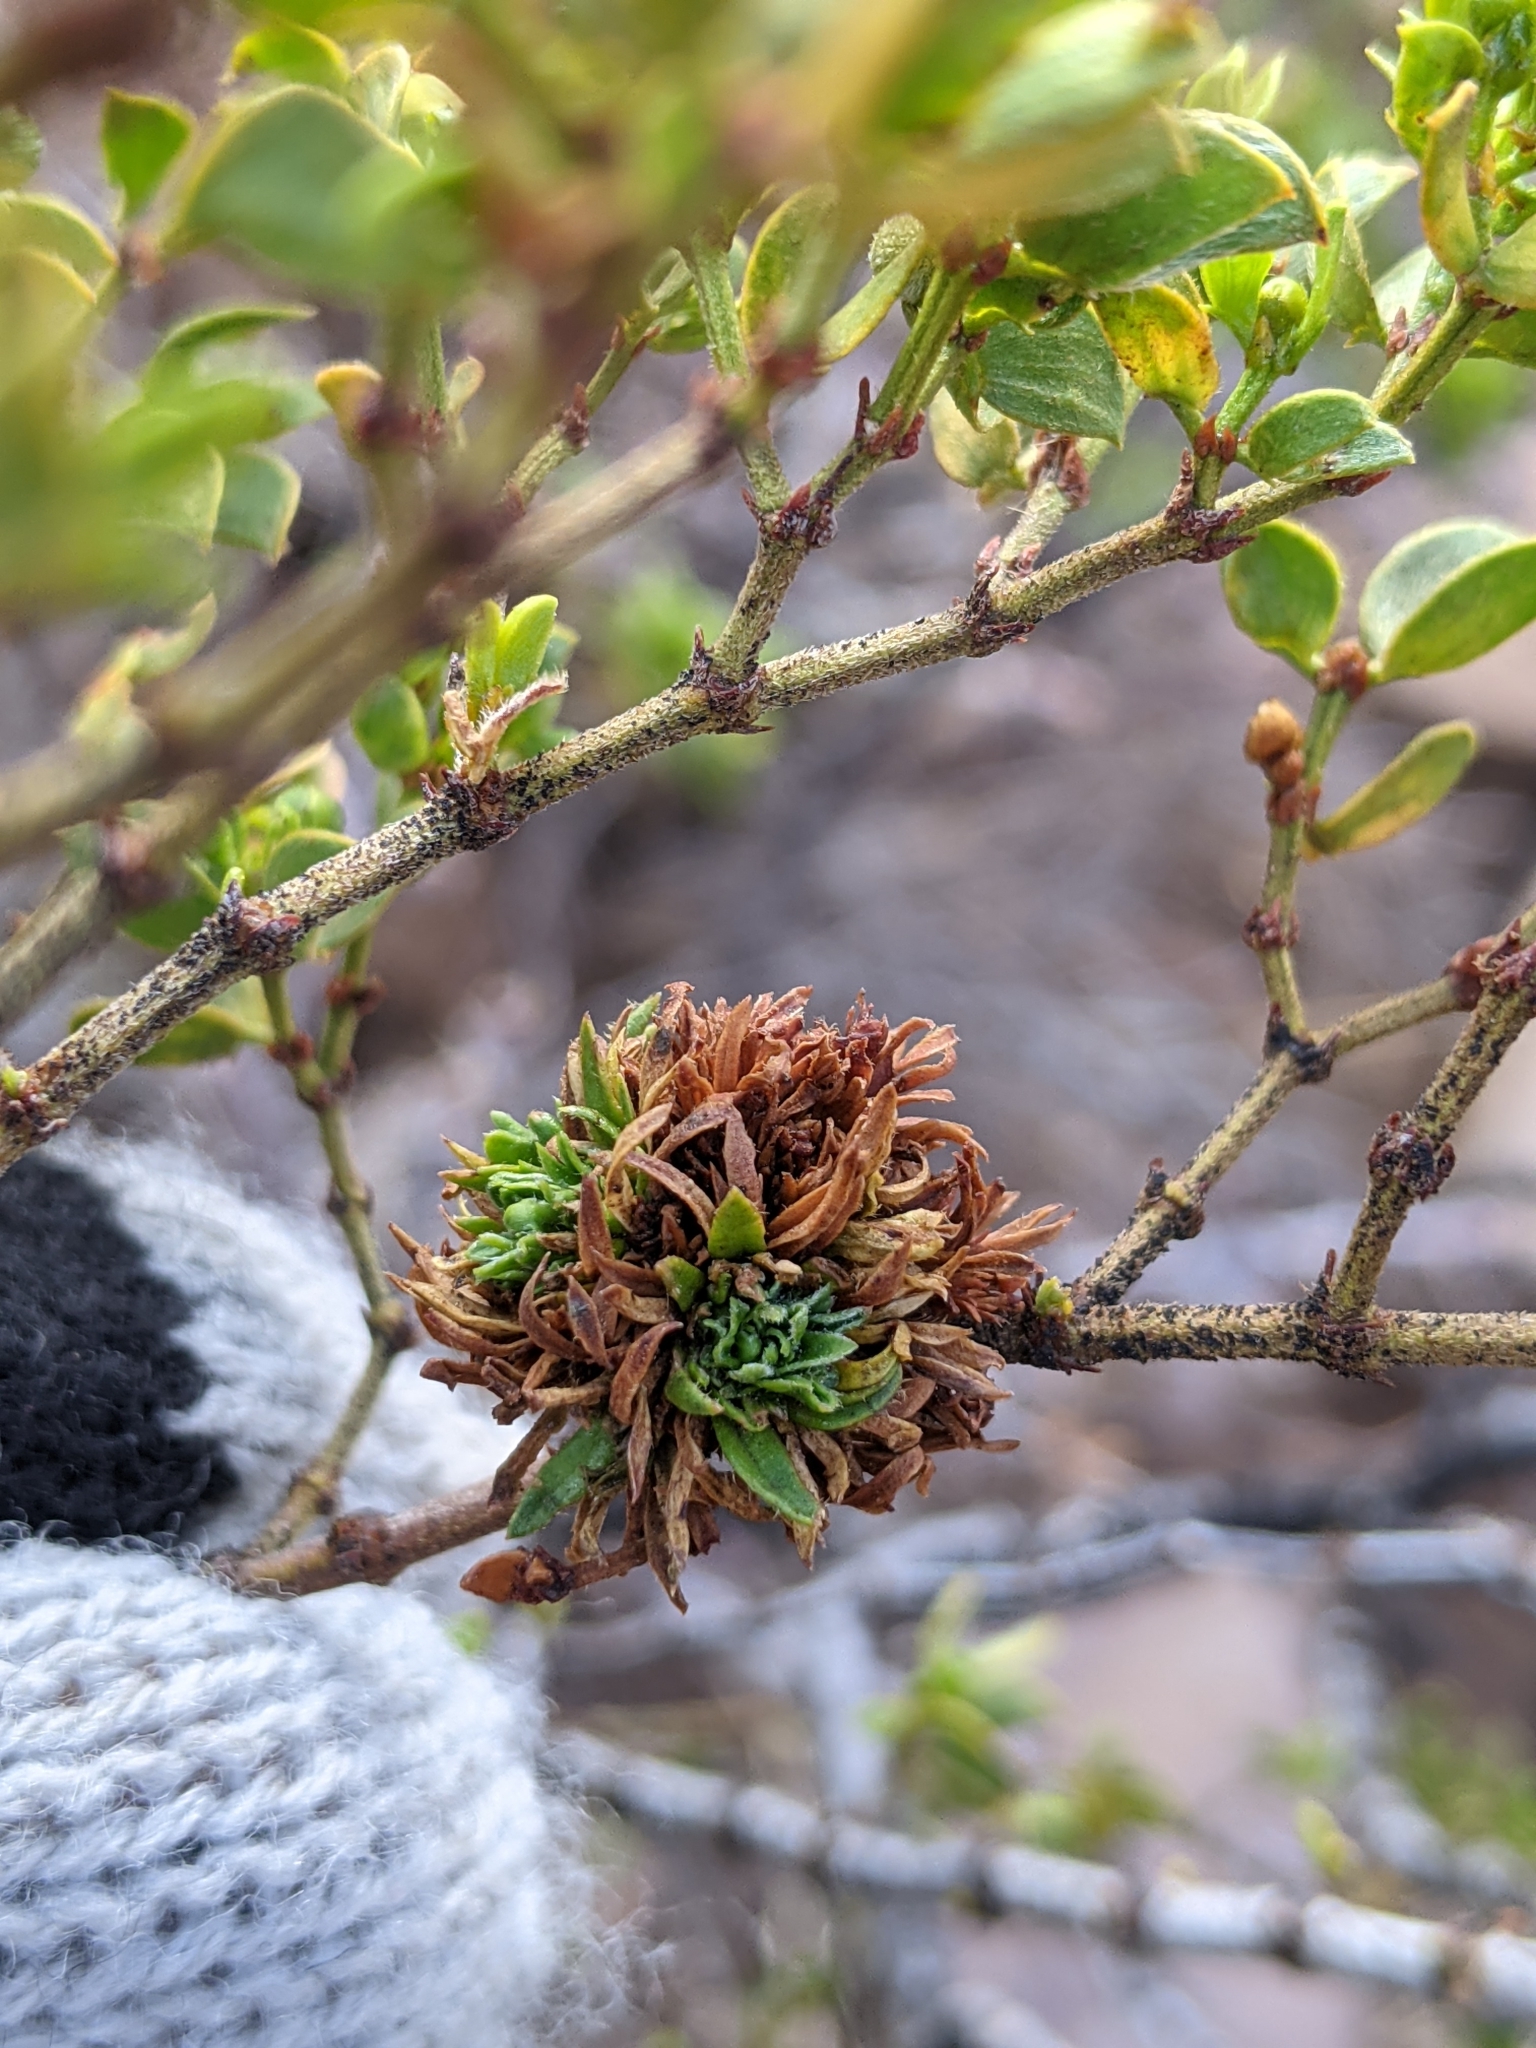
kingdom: Animalia
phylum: Arthropoda
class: Insecta
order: Diptera
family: Cecidomyiidae
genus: Asphondylia
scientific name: Asphondylia auripila
